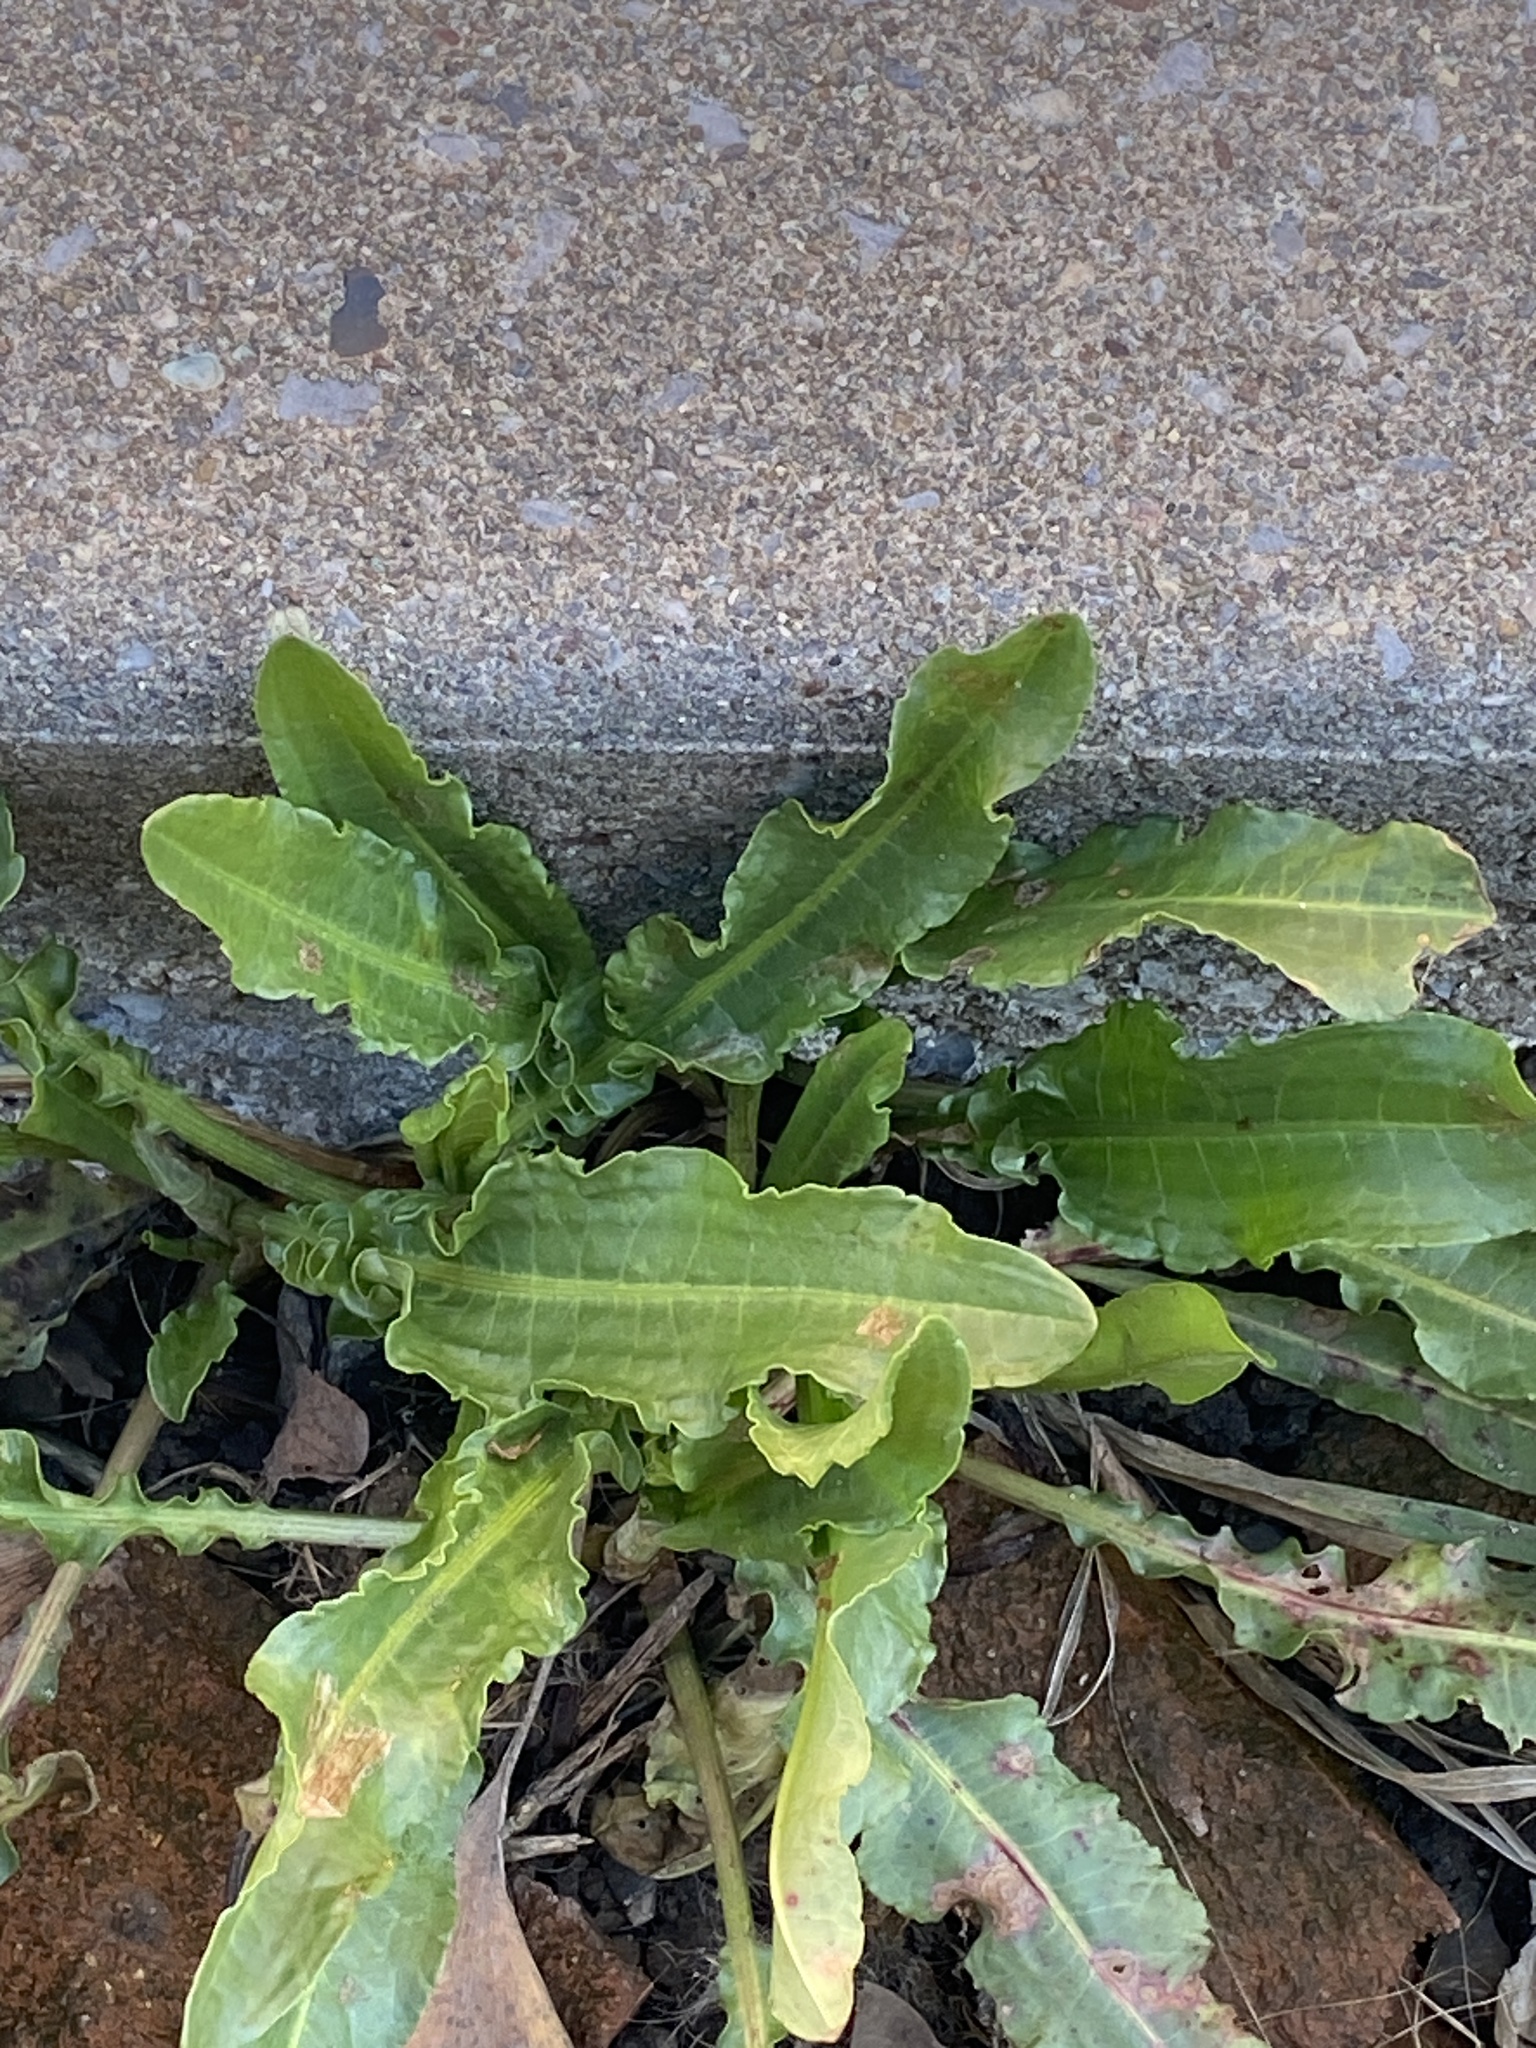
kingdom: Plantae
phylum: Tracheophyta
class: Magnoliopsida
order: Caryophyllales
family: Polygonaceae
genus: Rumex
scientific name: Rumex crispus
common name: Curled dock
